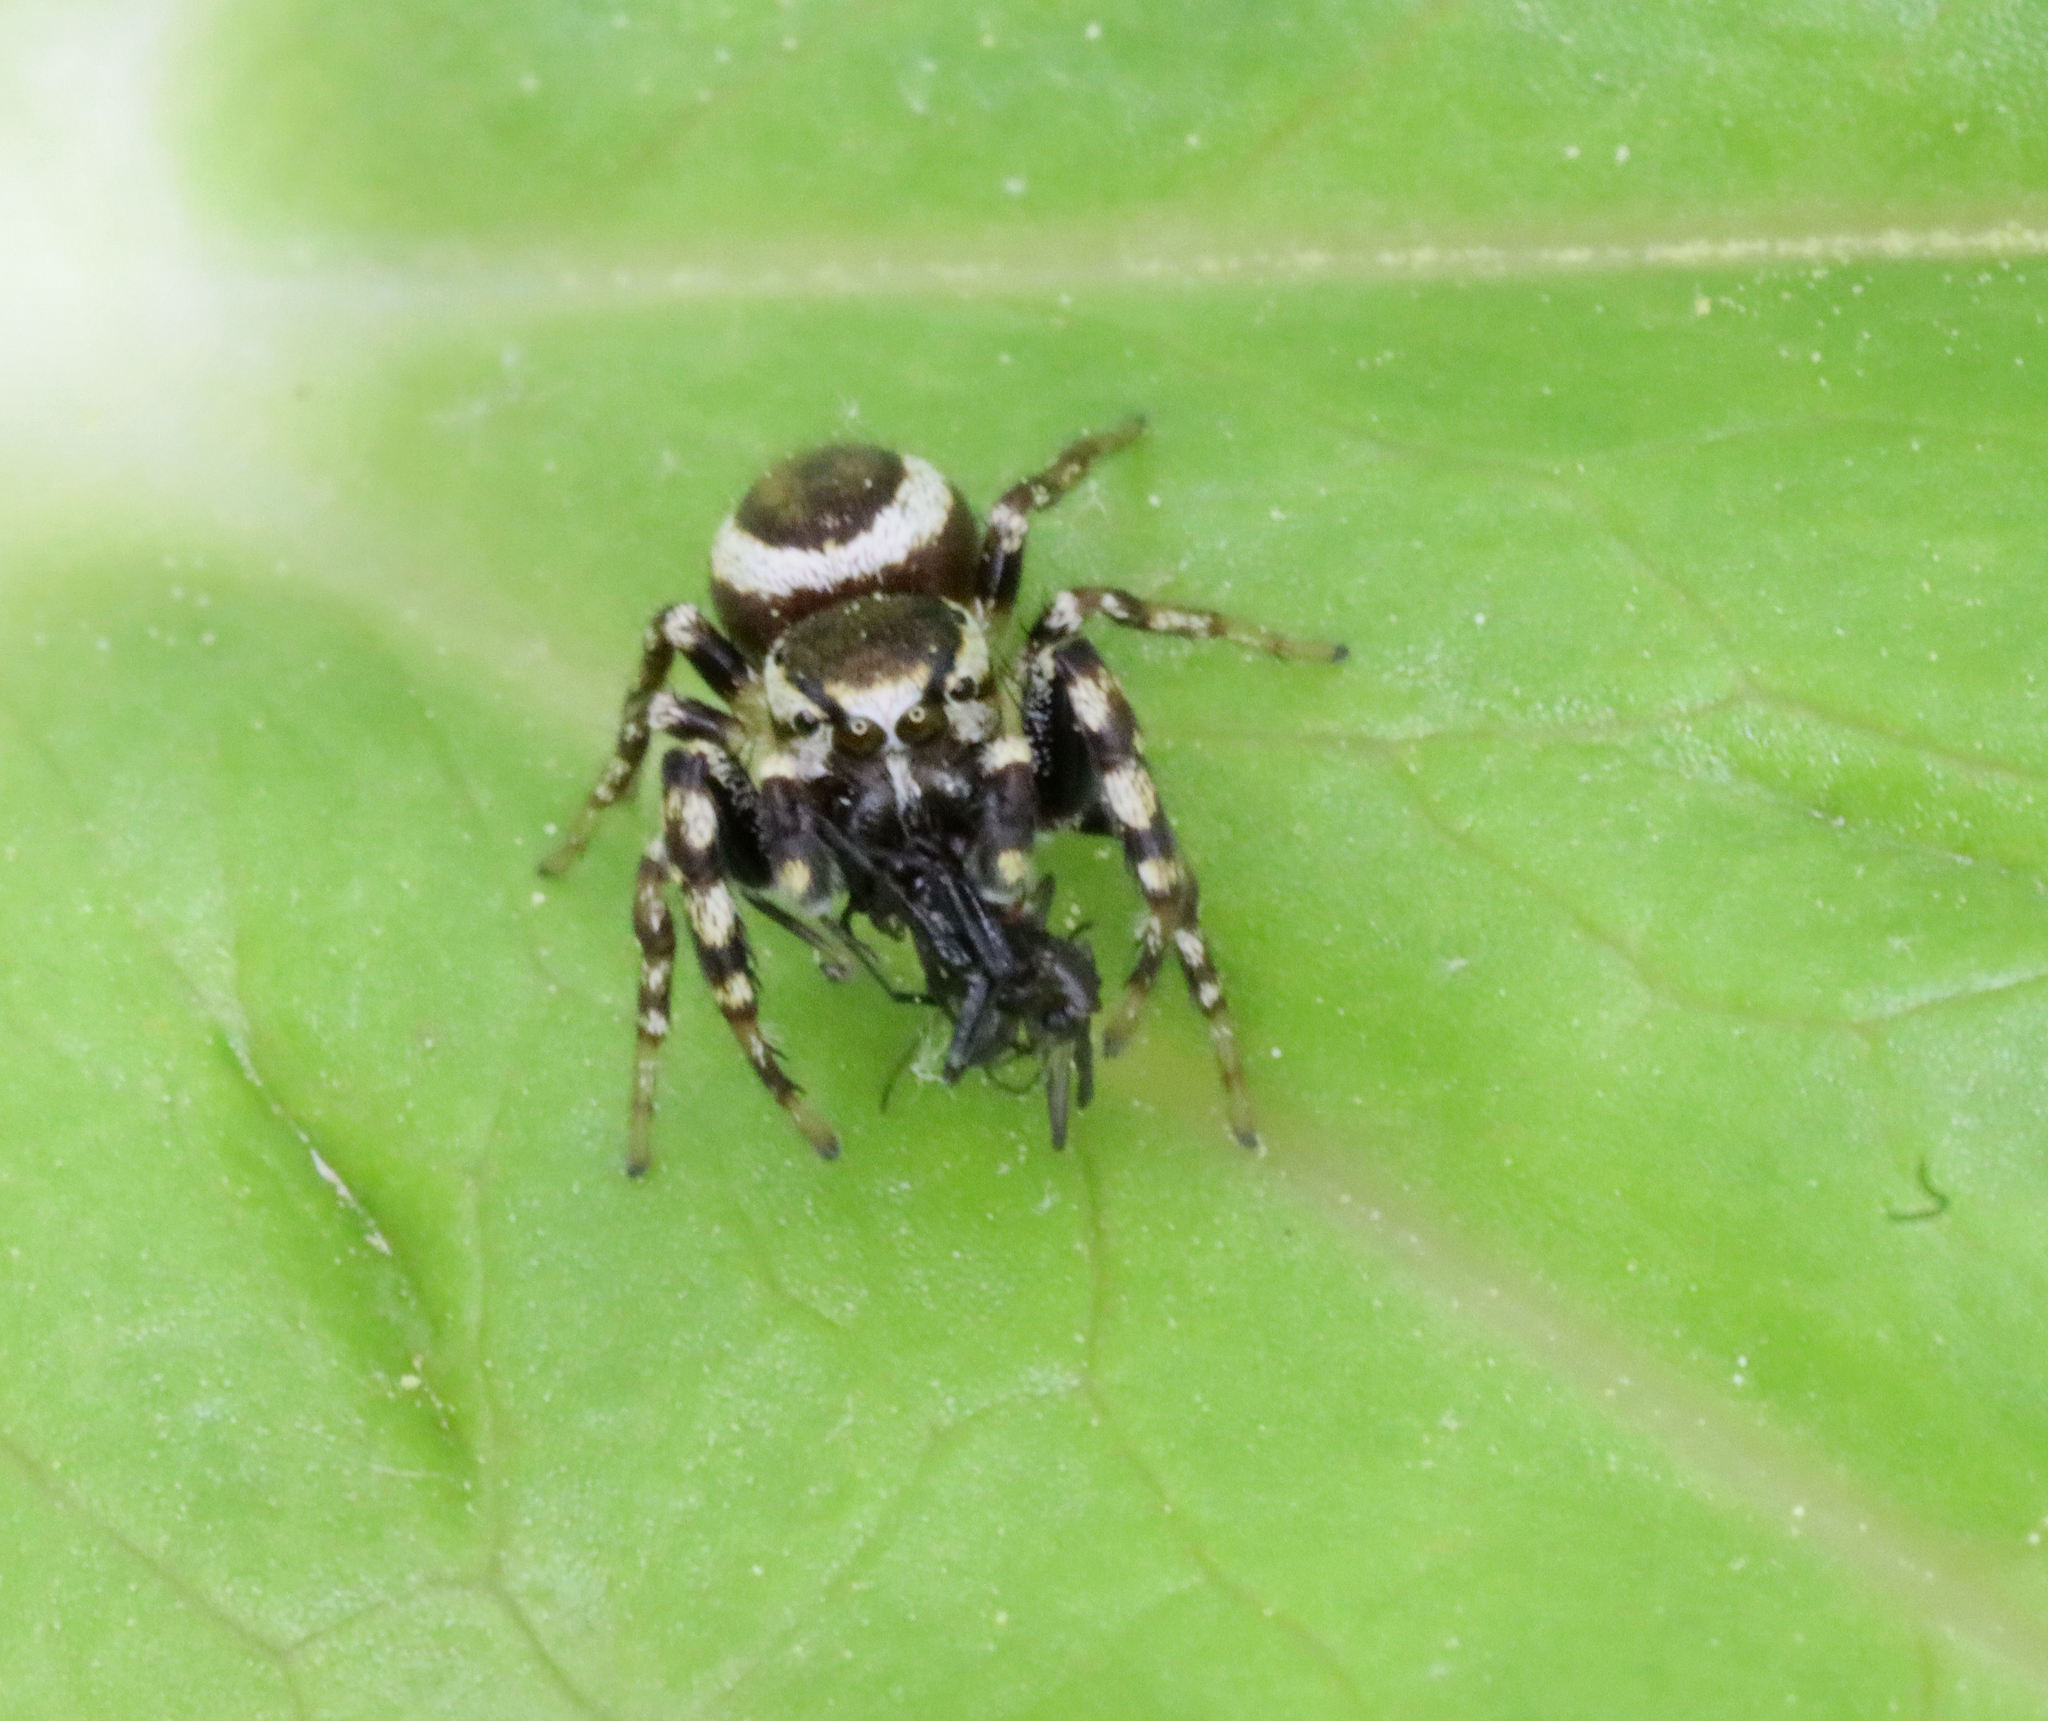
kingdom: Animalia
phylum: Arthropoda
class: Arachnida
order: Araneae
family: Salticidae
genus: Pelegrina
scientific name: Pelegrina proterva
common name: Common white-cheeked jumping spider
